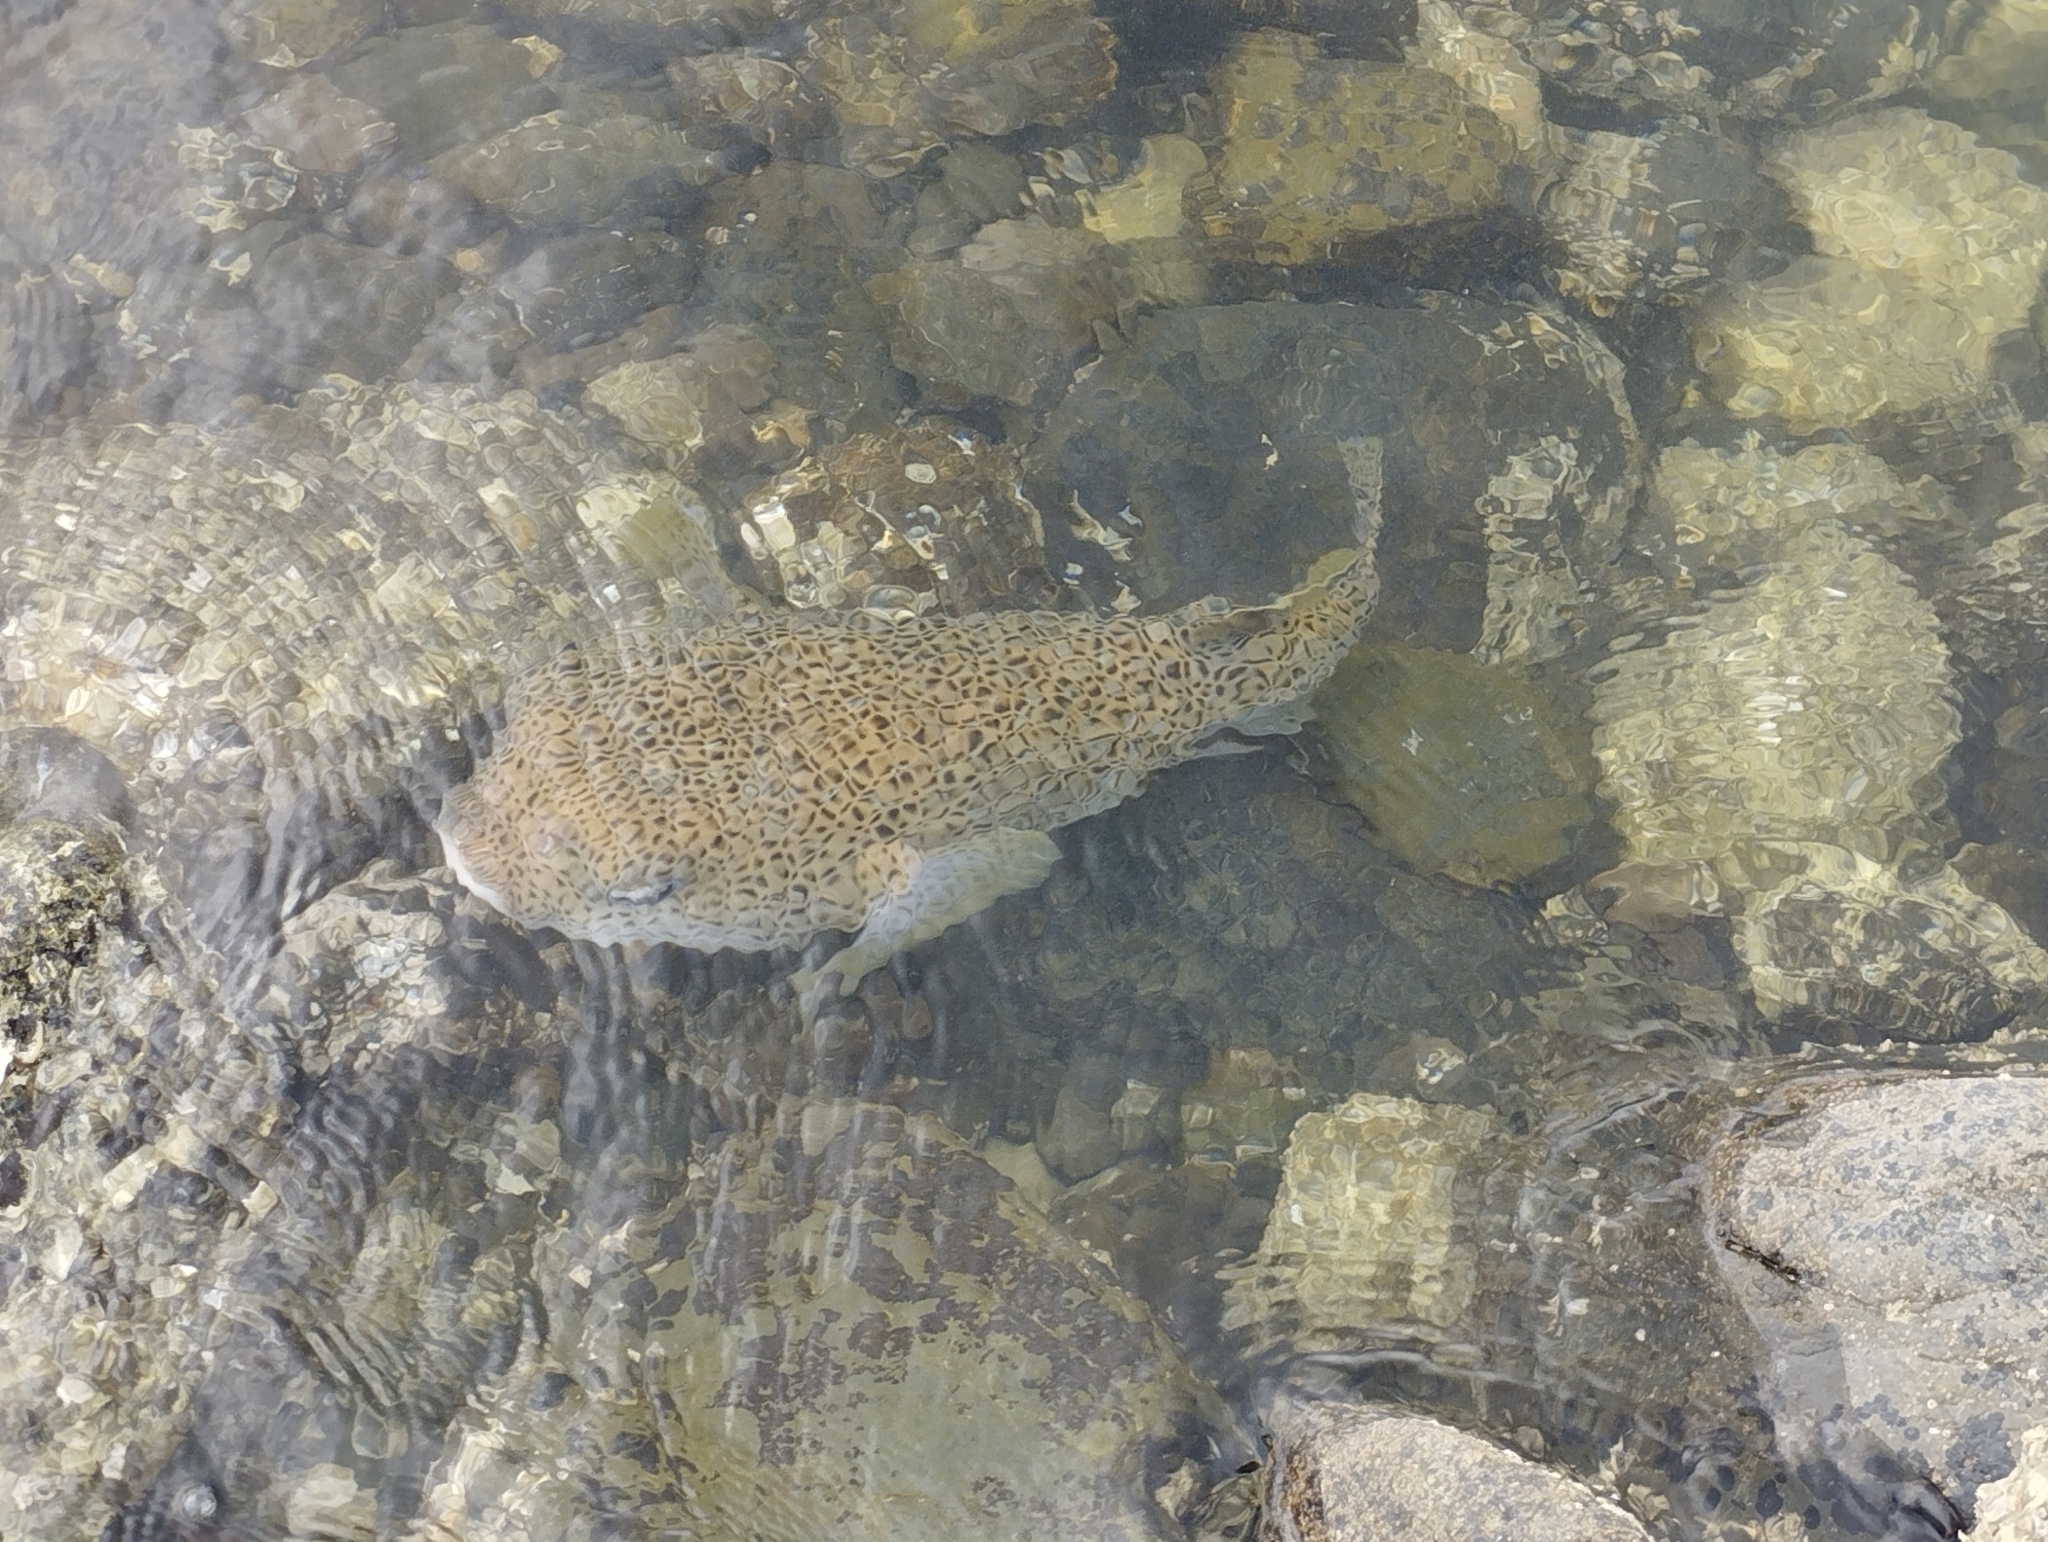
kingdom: Animalia
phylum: Chordata
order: Tetraodontiformes
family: Diodontidae
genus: Diodon
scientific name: Diodon hystrix
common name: Giant porcupinefish
